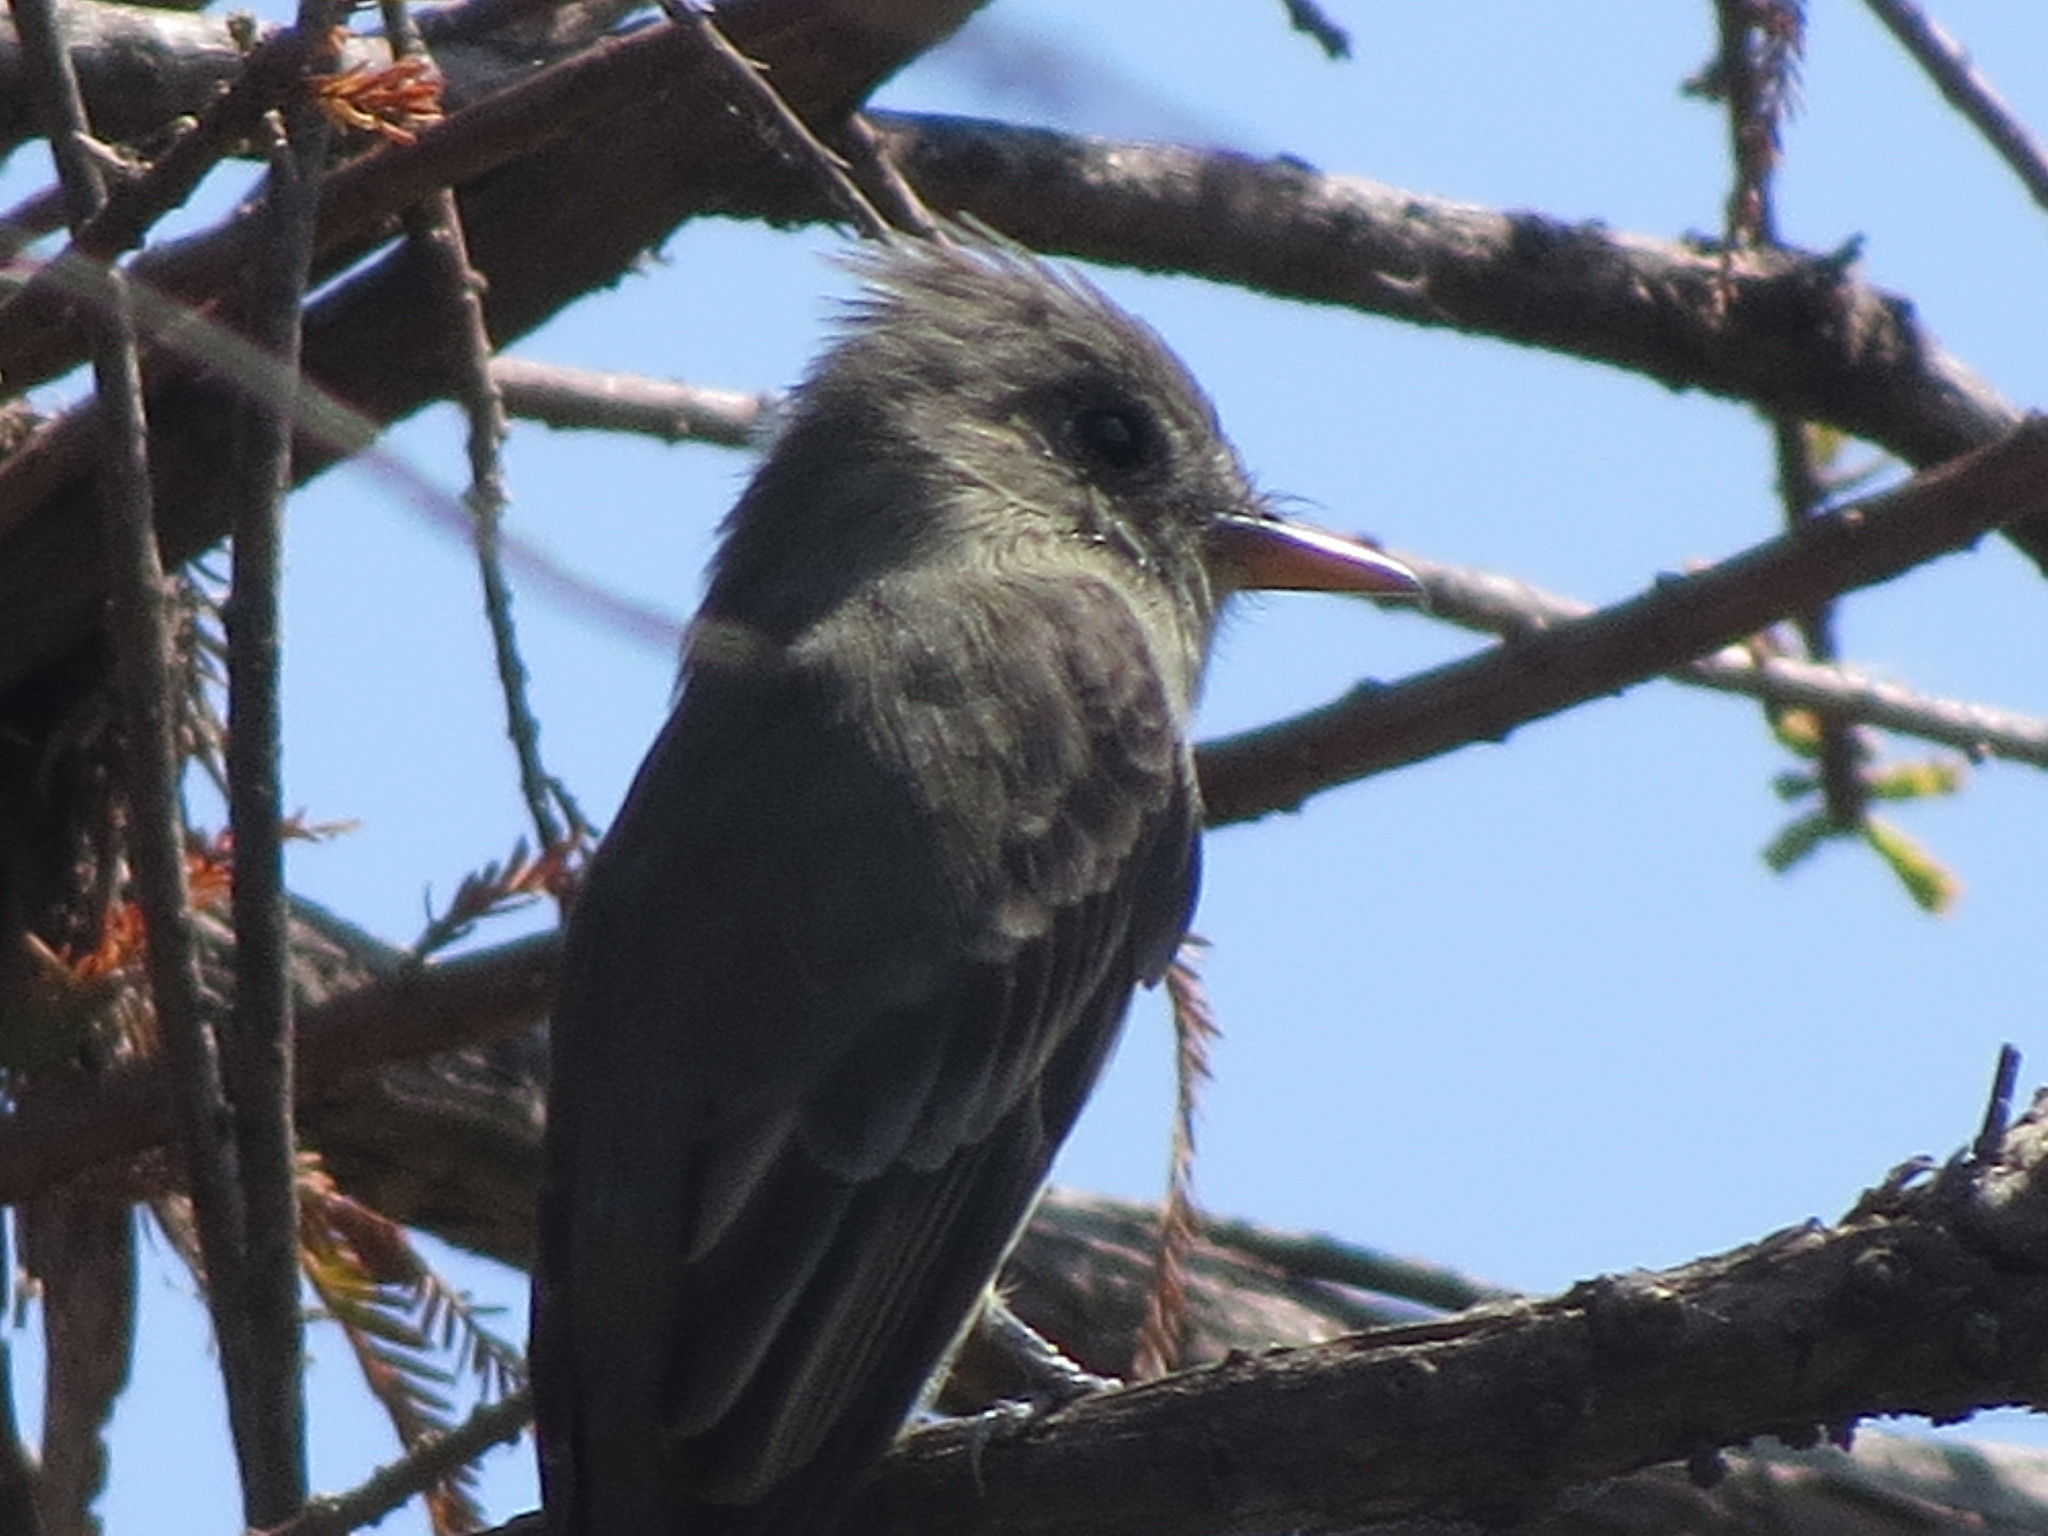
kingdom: Animalia
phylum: Chordata
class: Aves
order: Passeriformes
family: Tyrannidae
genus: Contopus
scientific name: Contopus pertinax
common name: Greater pewee
